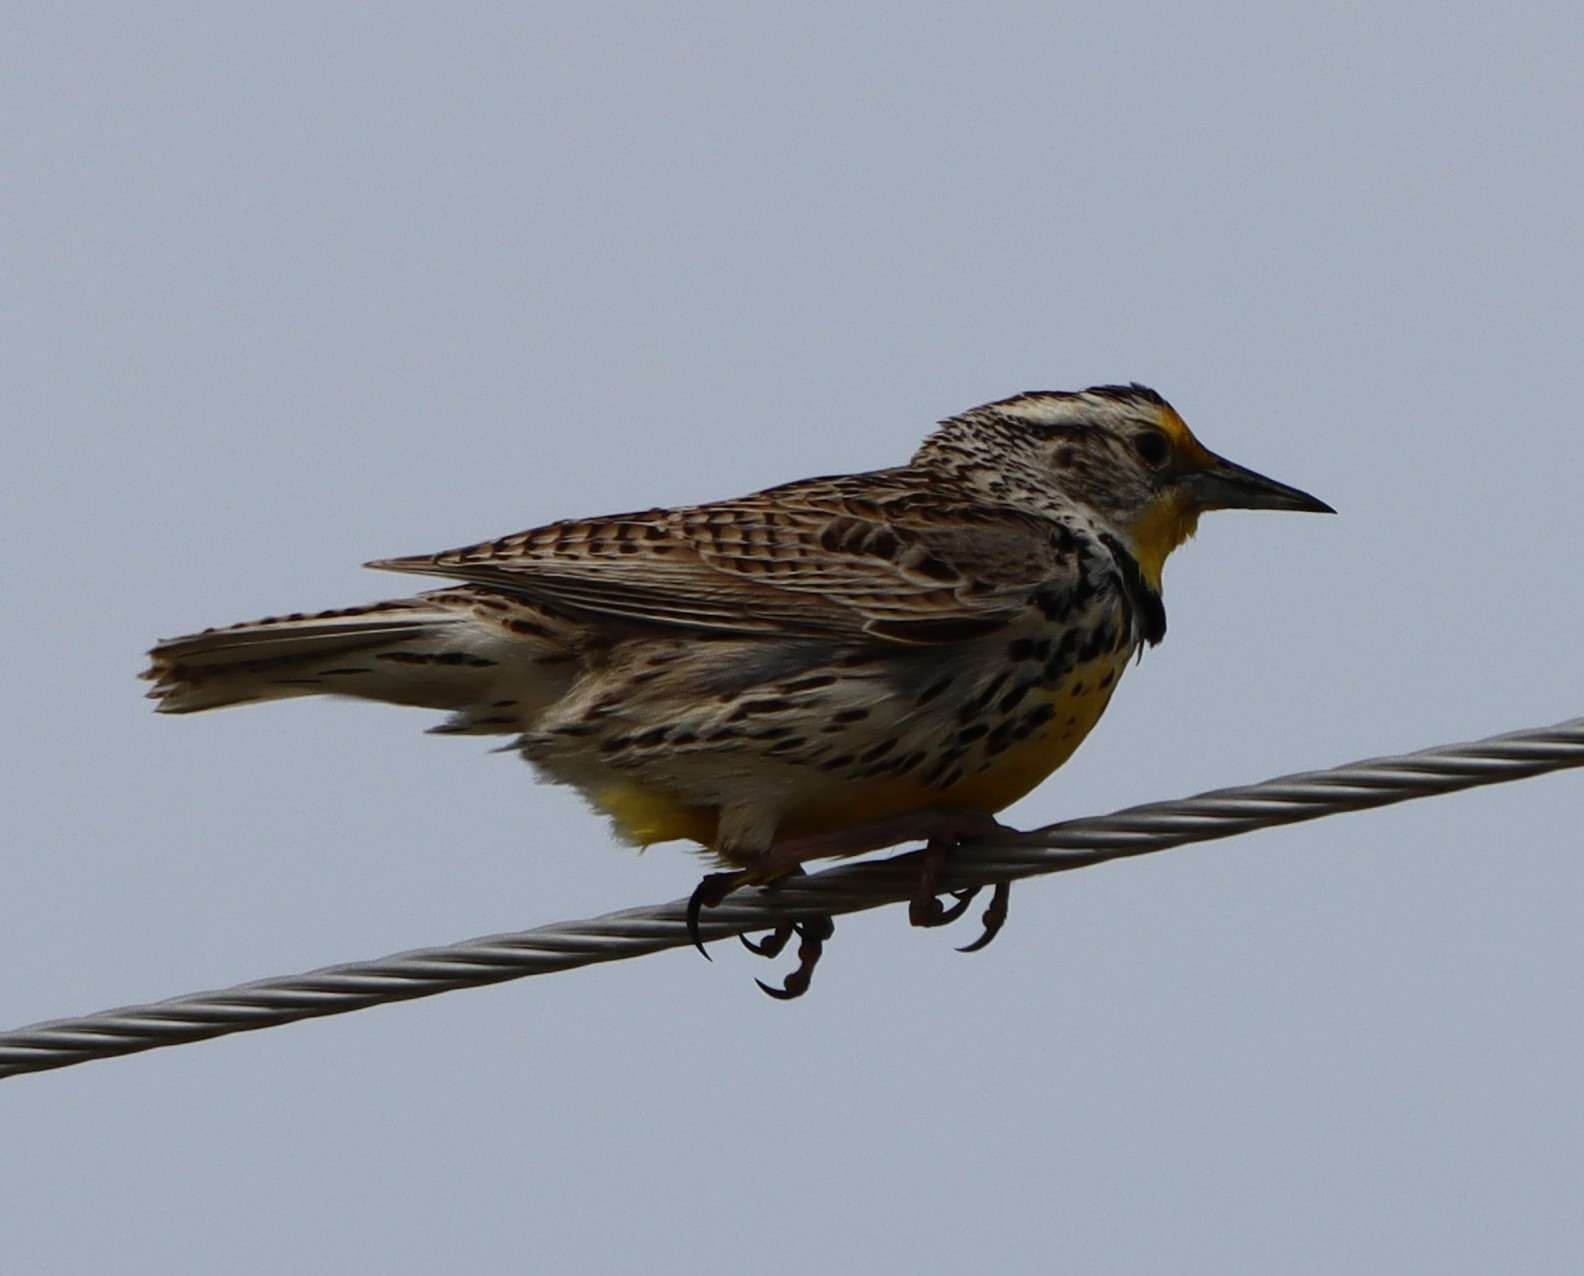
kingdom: Animalia
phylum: Chordata
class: Aves
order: Passeriformes
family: Icteridae
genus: Sturnella
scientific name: Sturnella neglecta
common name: Western meadowlark
